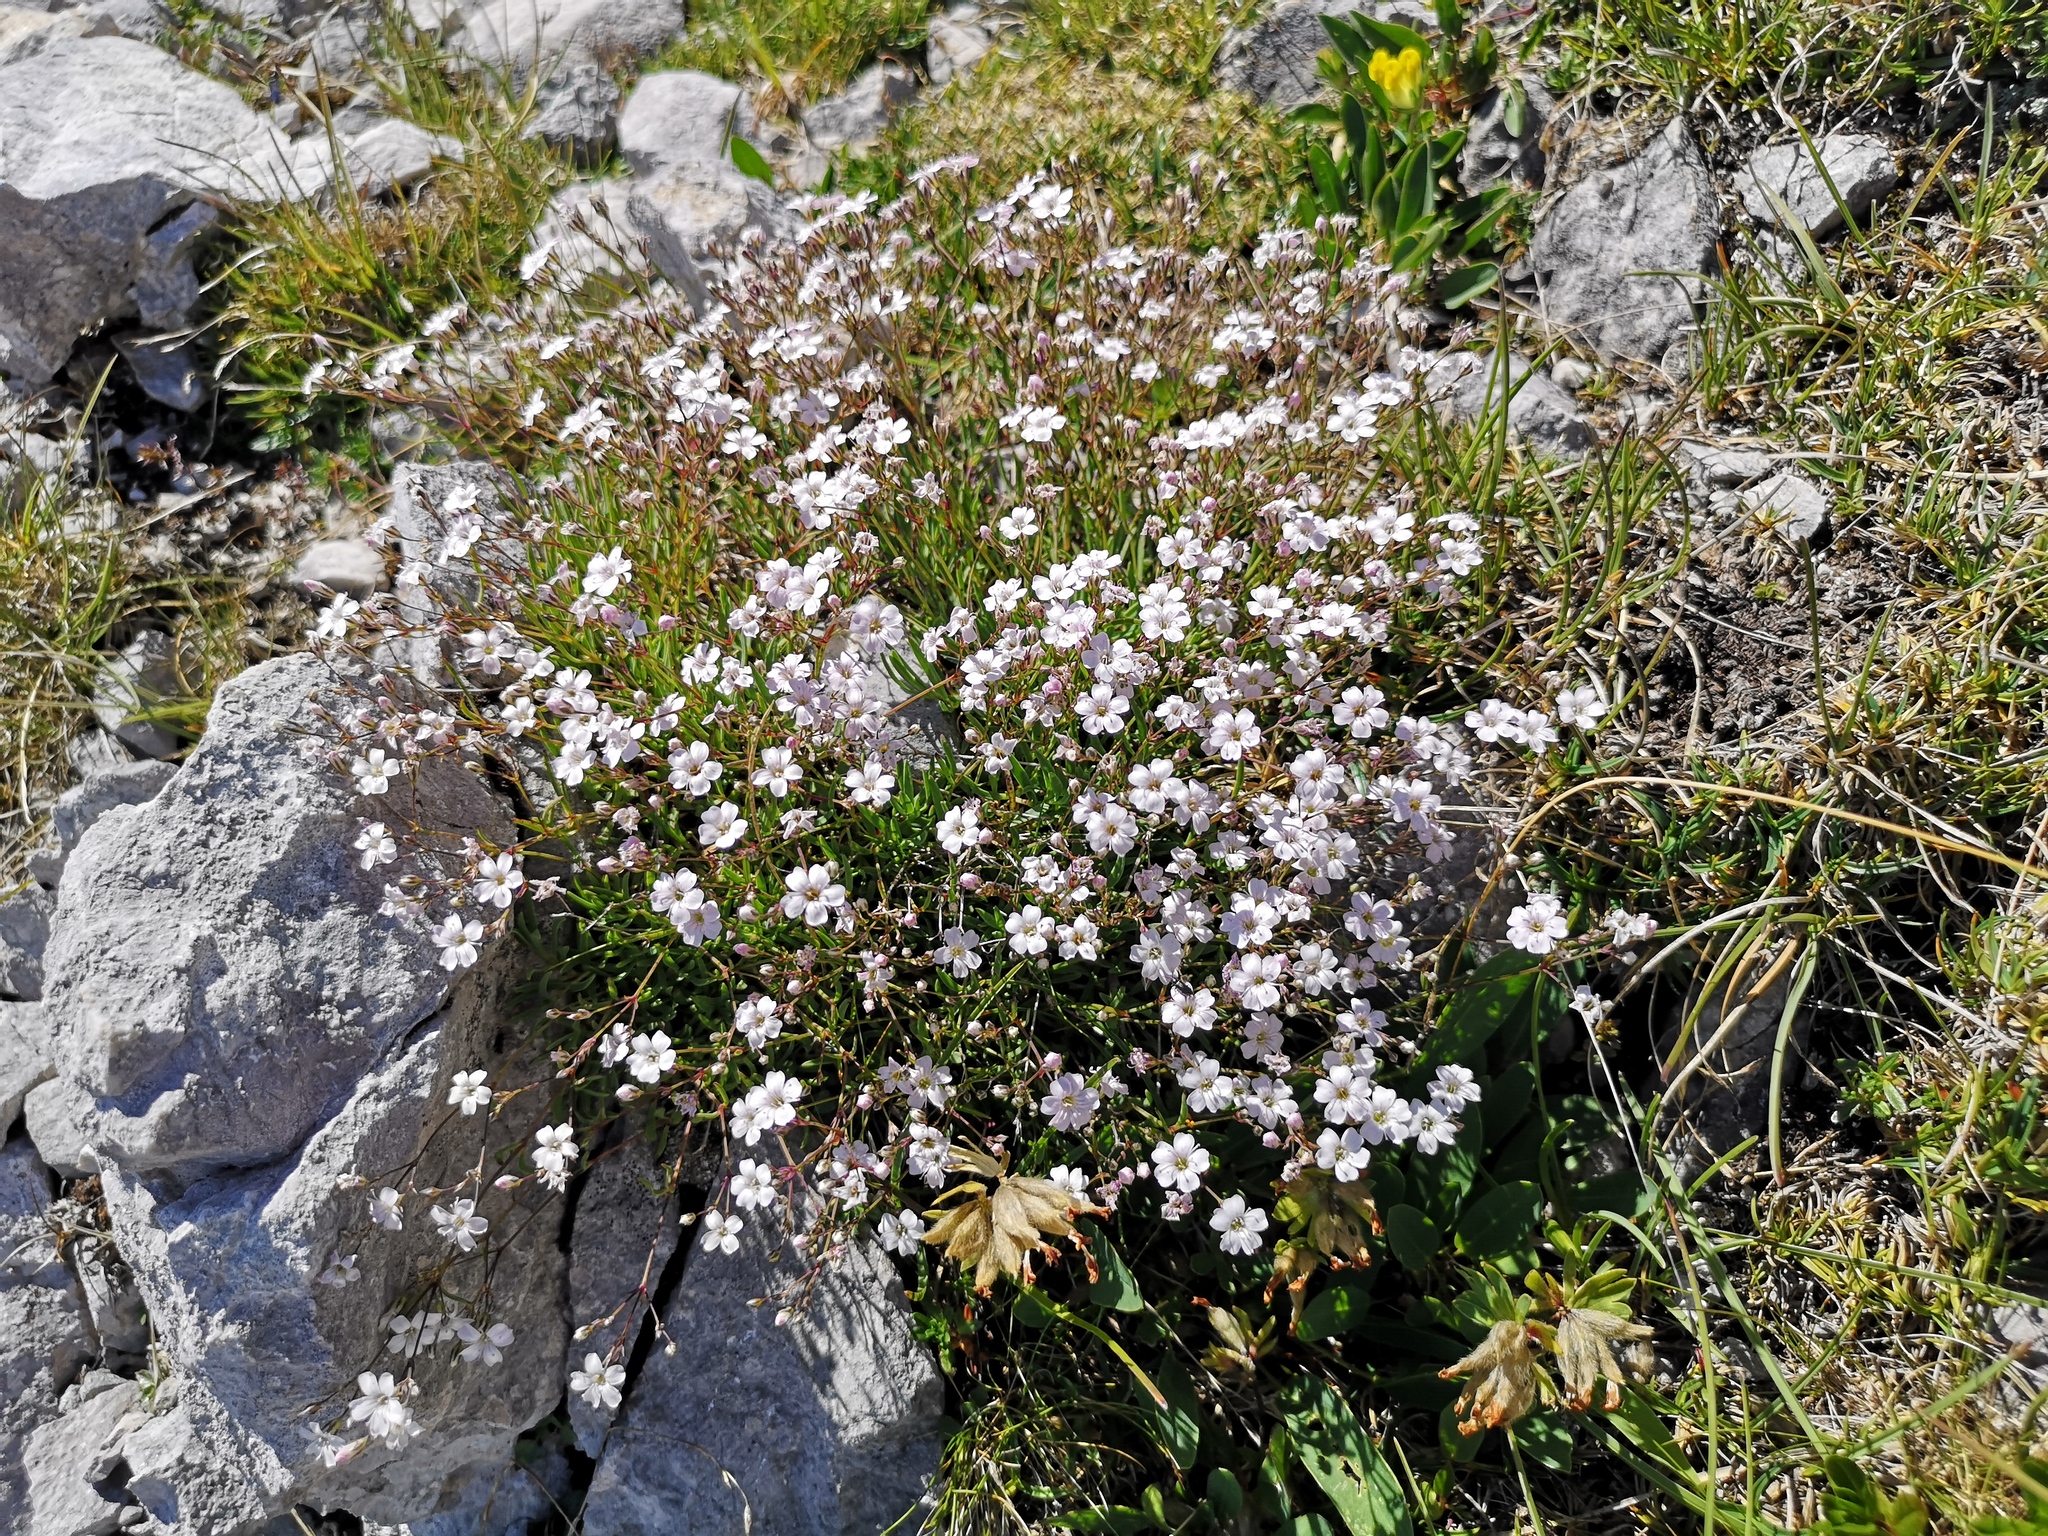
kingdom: Plantae
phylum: Tracheophyta
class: Magnoliopsida
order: Caryophyllales
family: Caryophyllaceae
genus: Gypsophila
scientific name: Gypsophila repens
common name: Creeping baby's-breath
